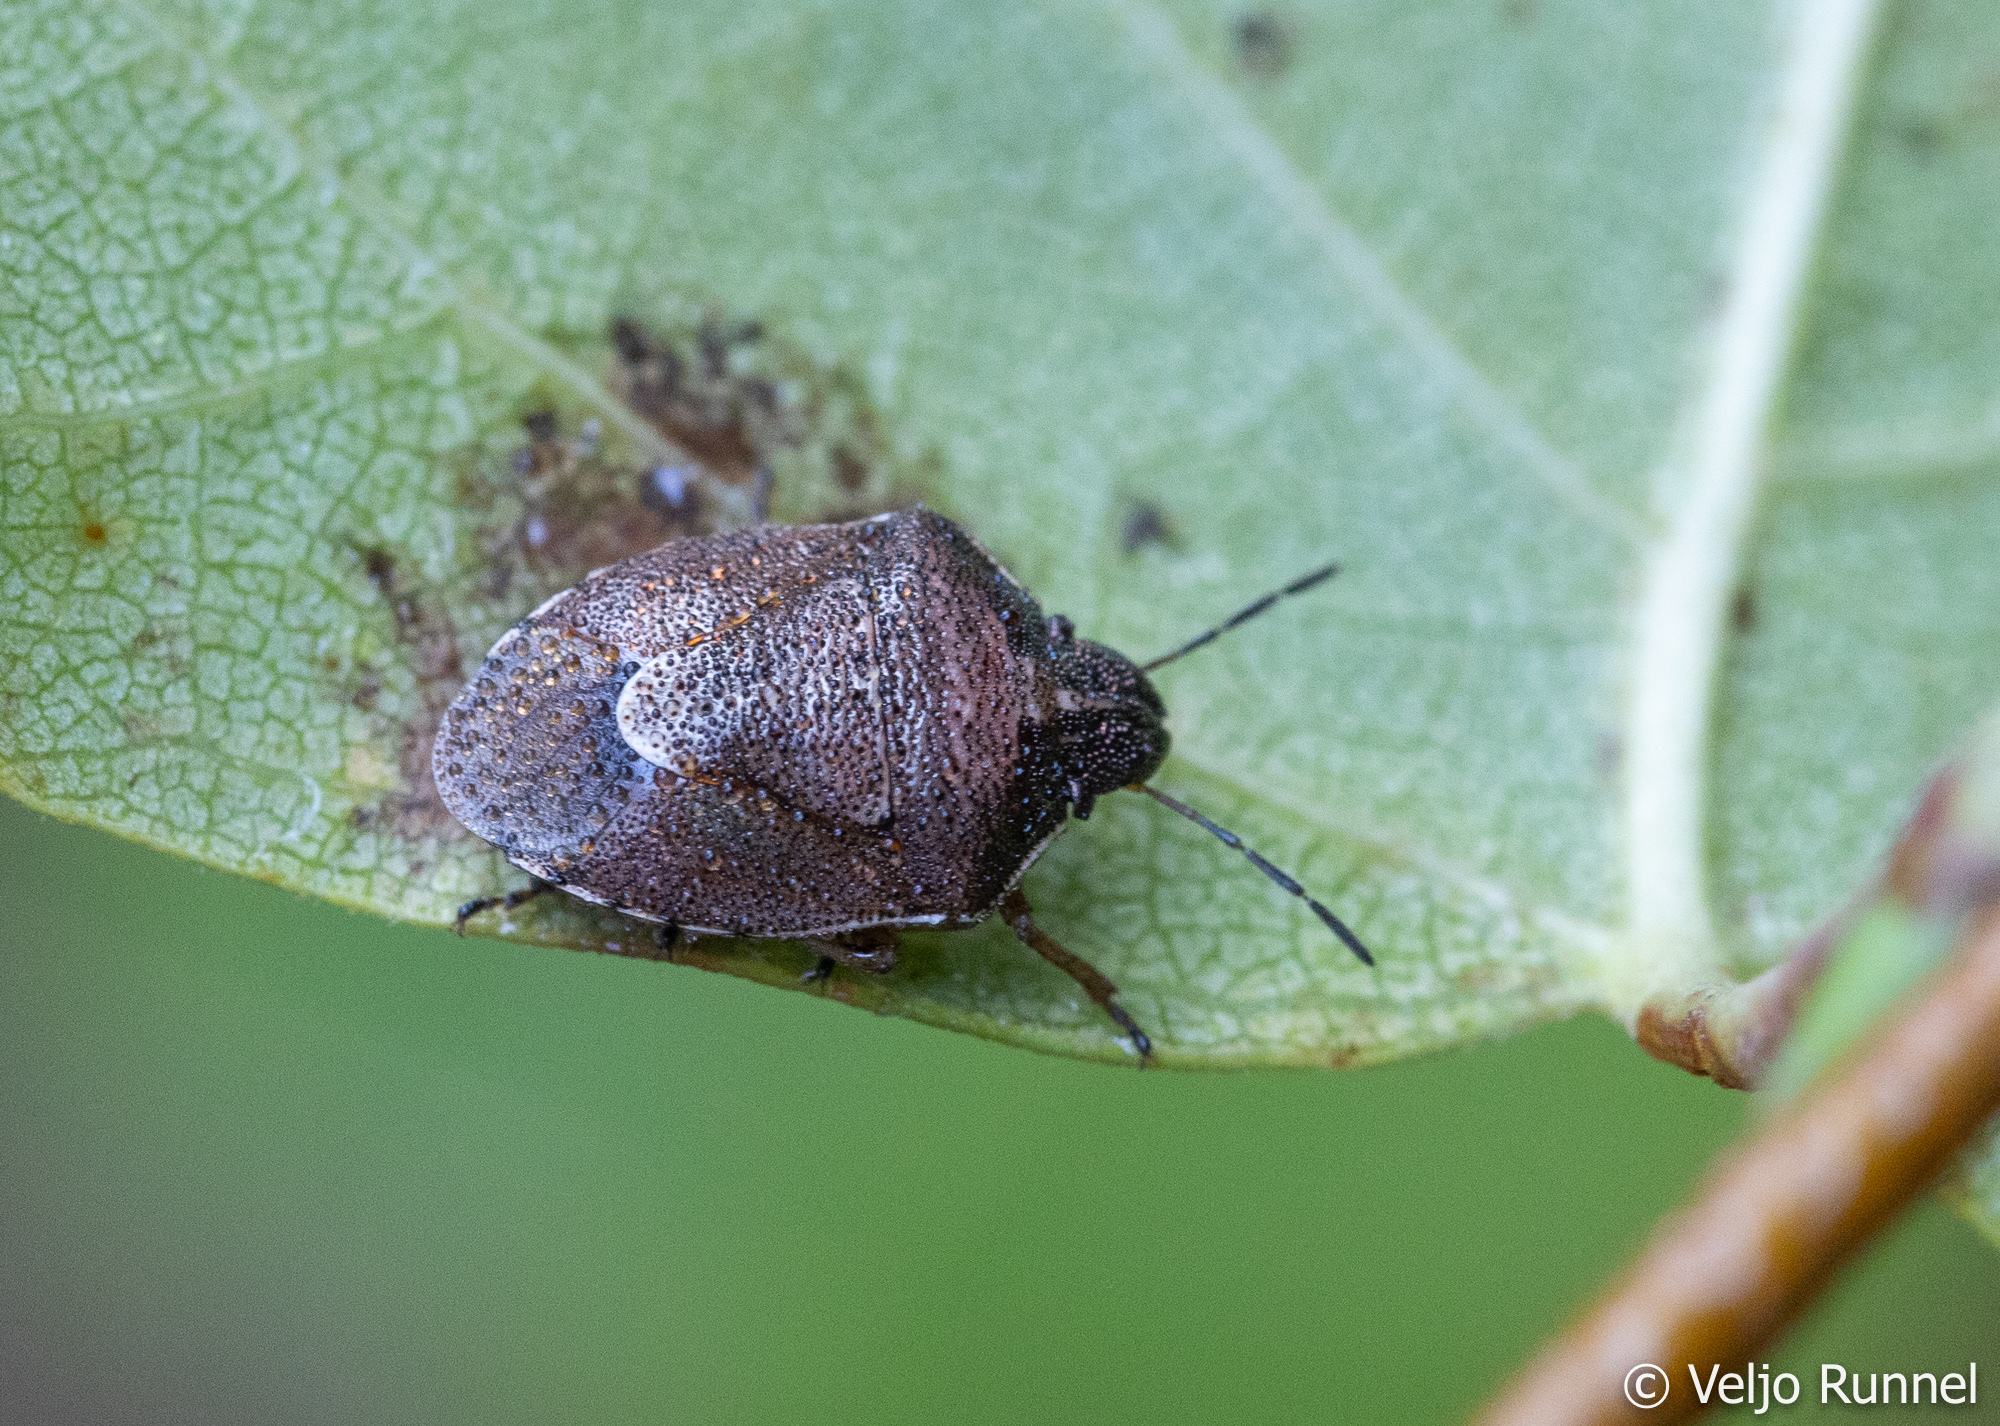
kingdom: Animalia
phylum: Arthropoda
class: Insecta
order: Hemiptera
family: Pentatomidae
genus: Rubiconia
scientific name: Rubiconia intermedia
